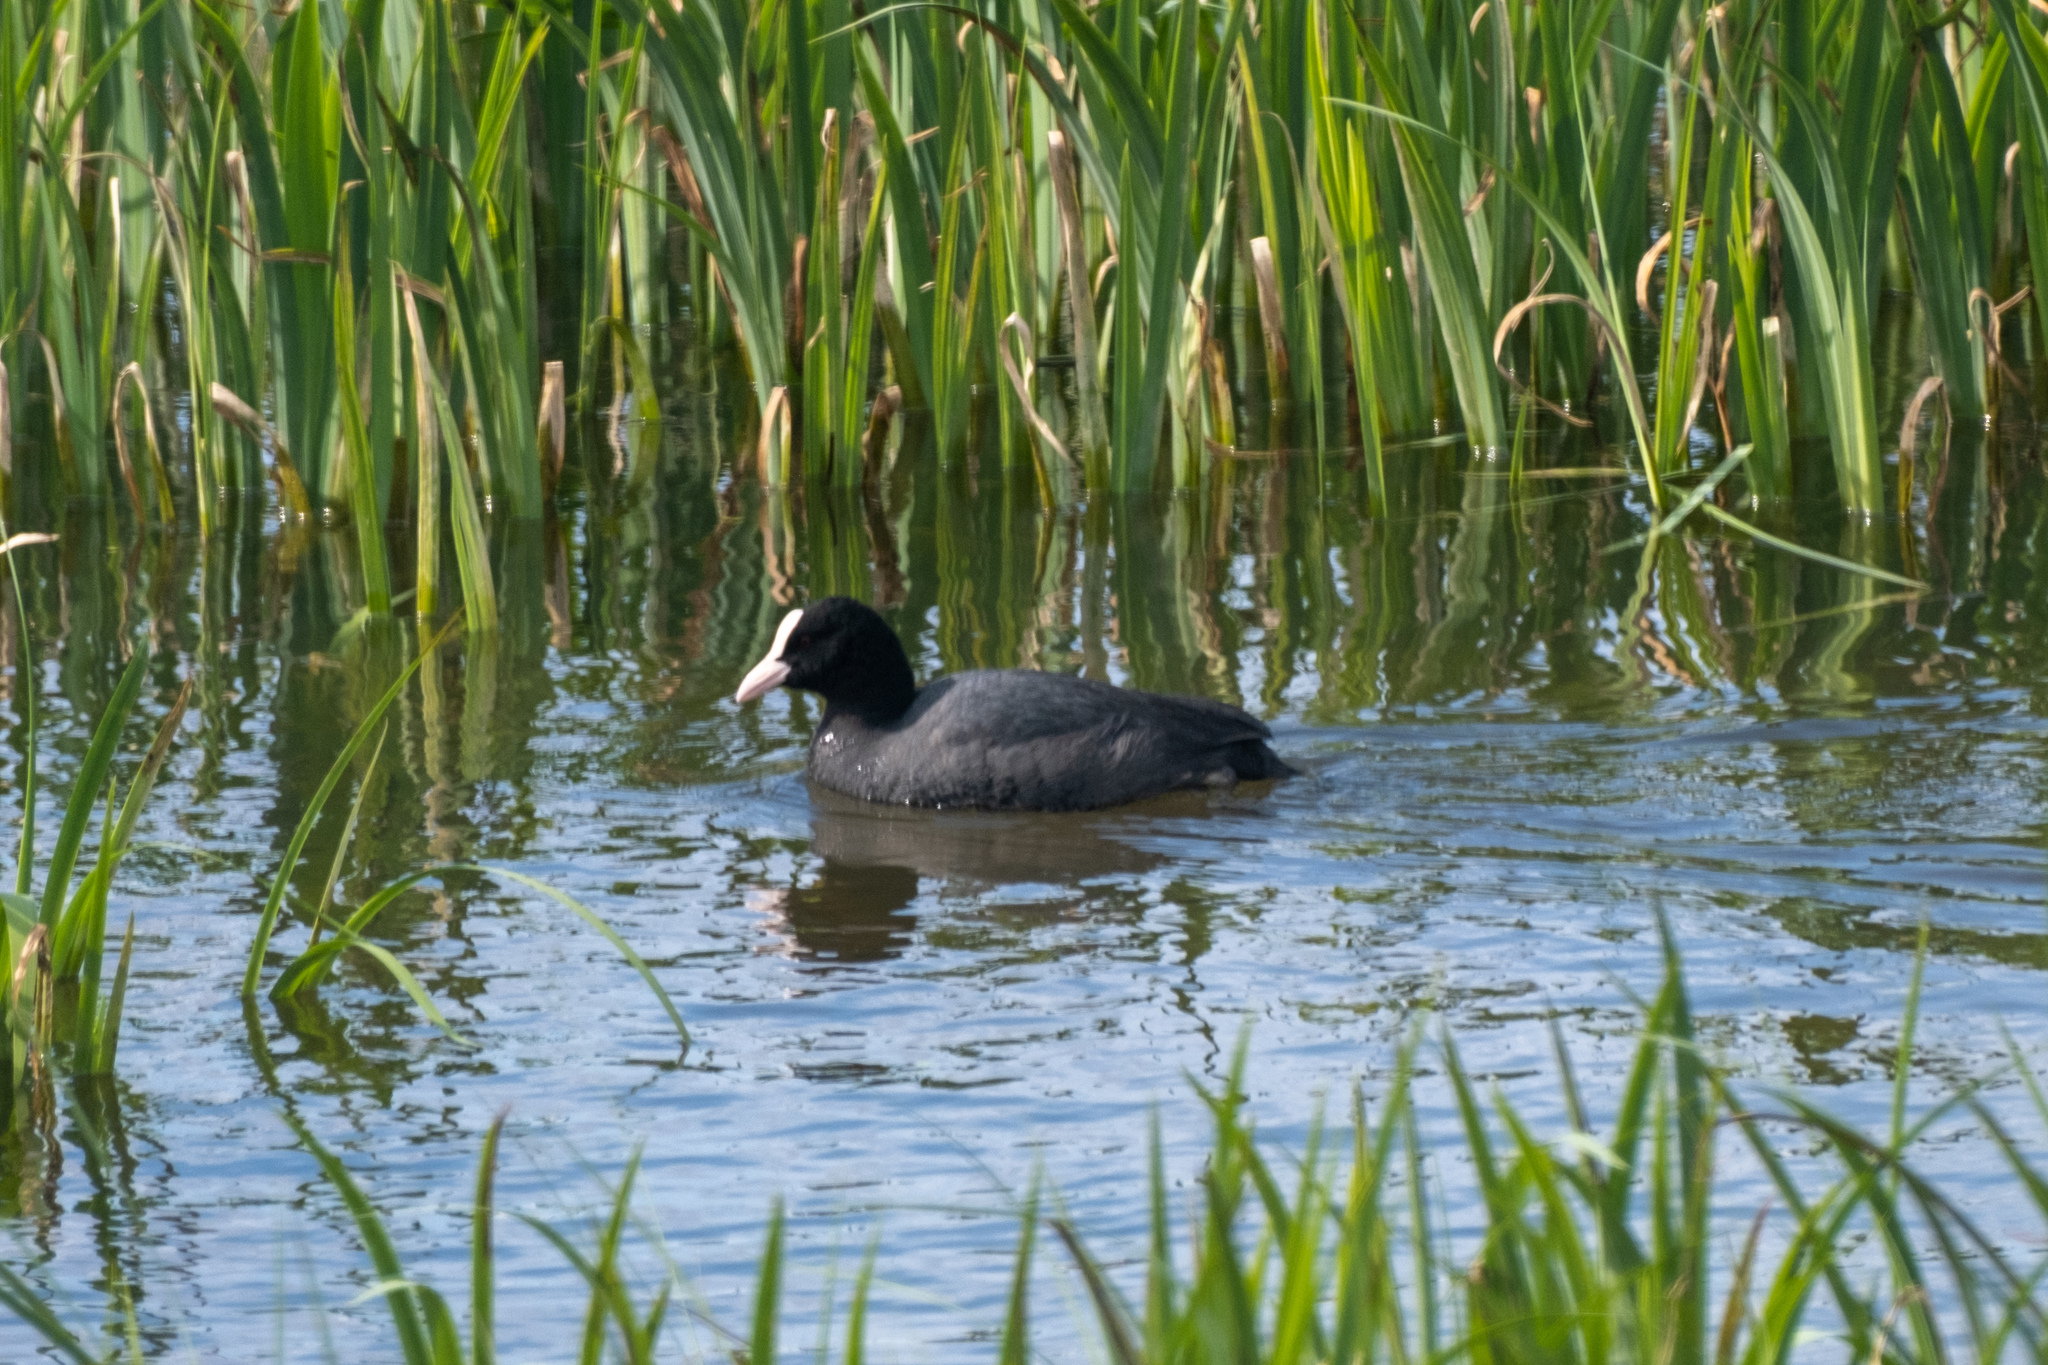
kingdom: Animalia
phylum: Chordata
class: Aves
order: Gruiformes
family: Rallidae
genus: Fulica
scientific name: Fulica atra
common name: Eurasian coot
